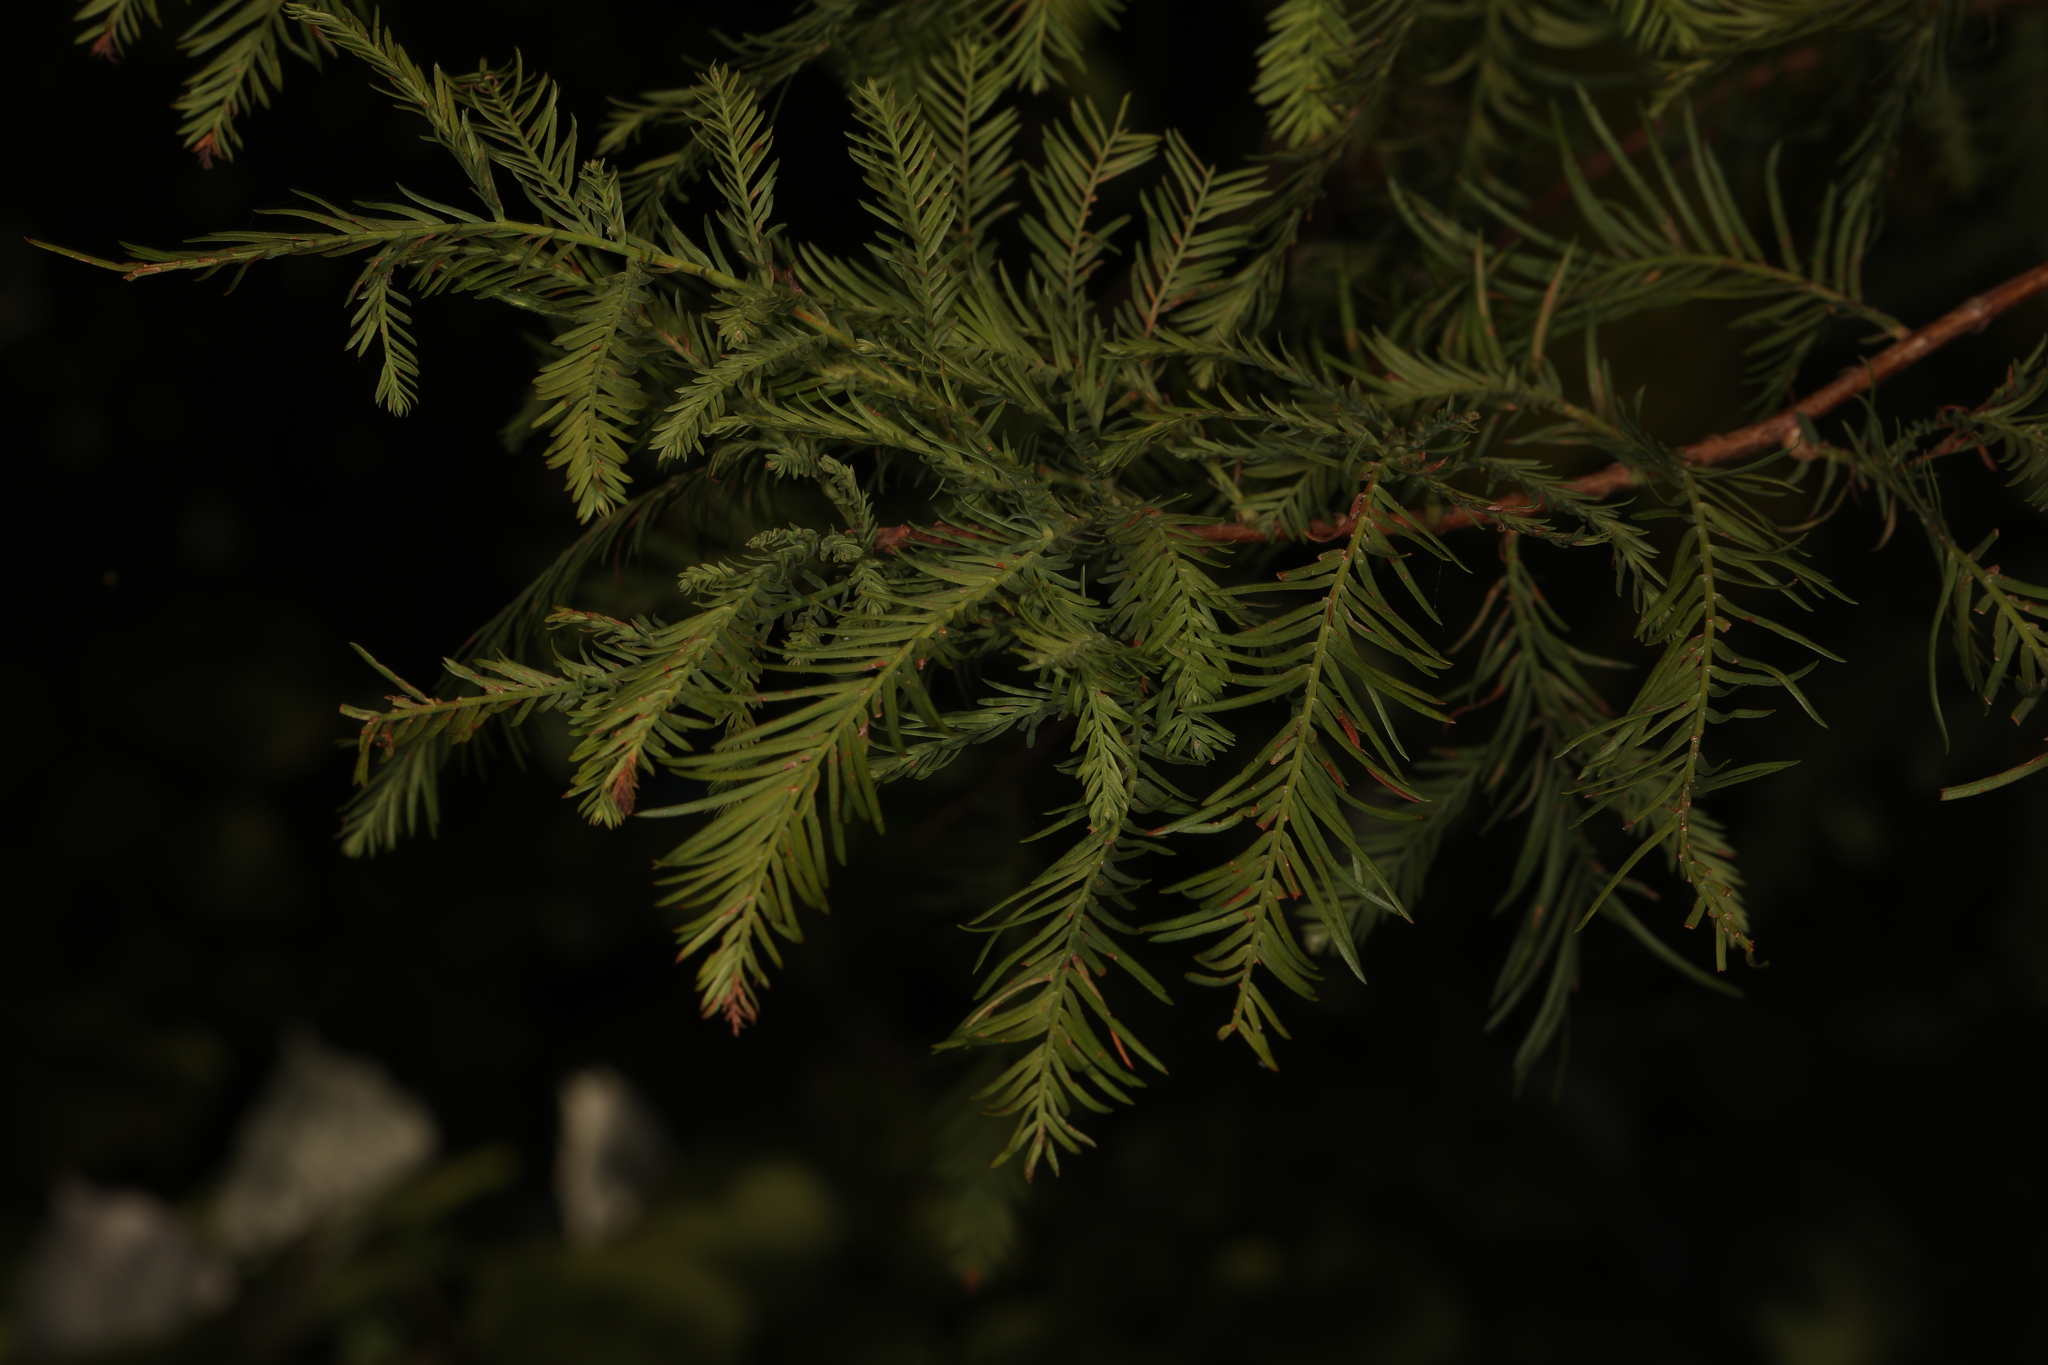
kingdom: Plantae
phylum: Tracheophyta
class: Pinopsida
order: Pinales
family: Cupressaceae
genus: Taxodium
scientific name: Taxodium distichum
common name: Bald cypress
